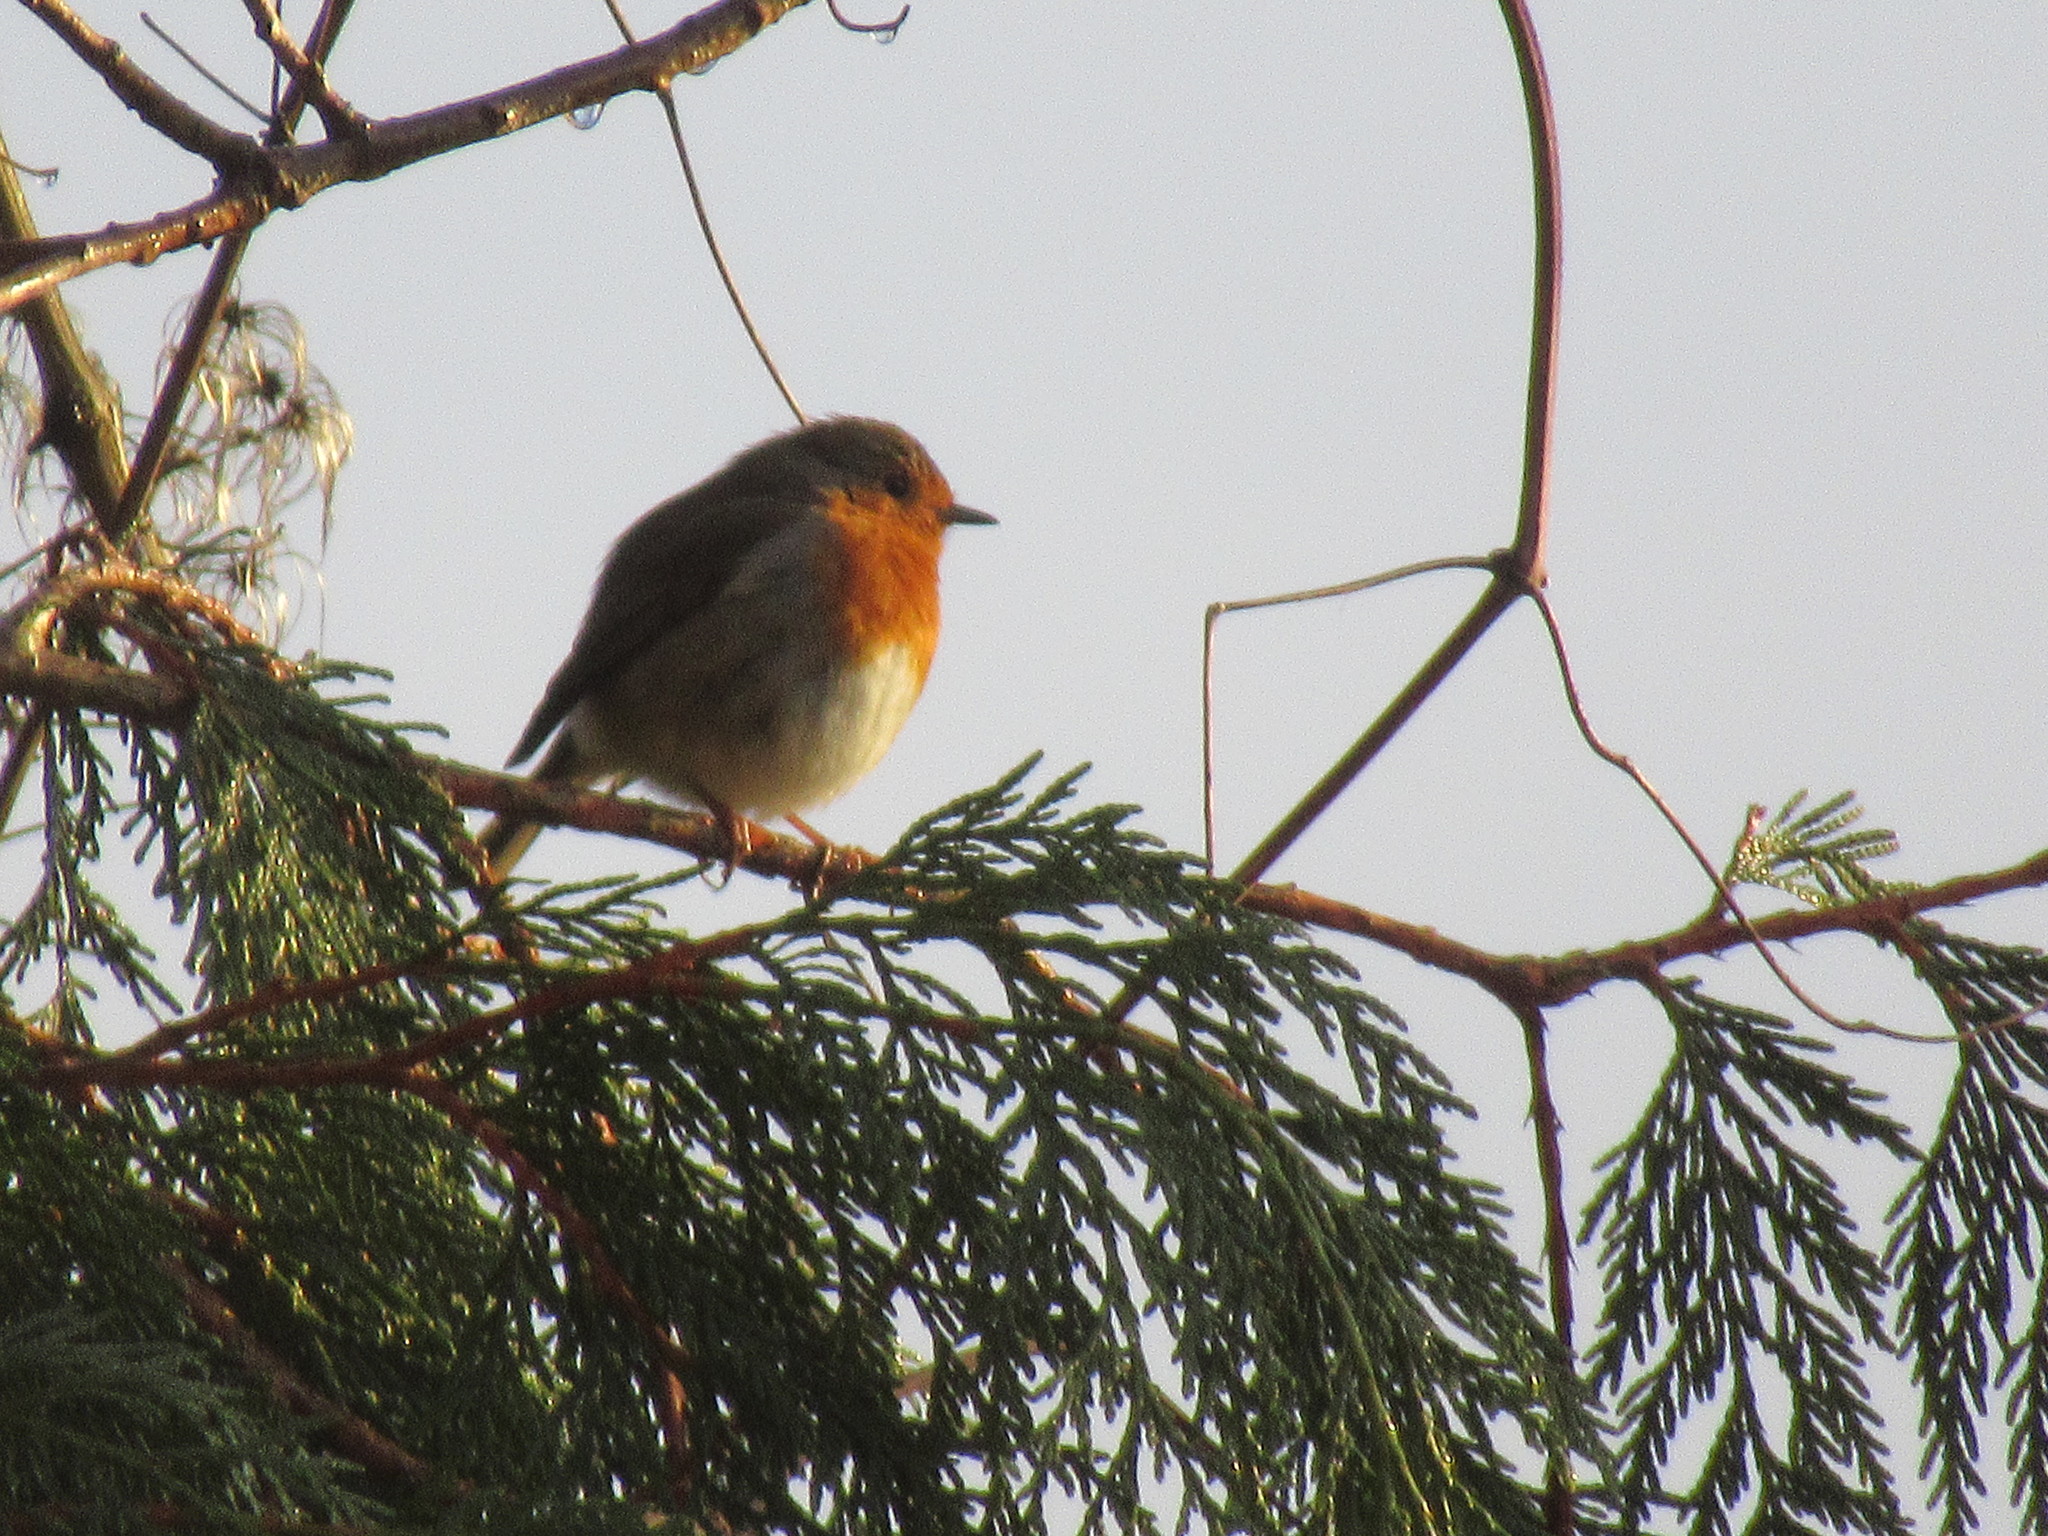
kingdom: Animalia
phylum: Chordata
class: Aves
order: Passeriformes
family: Muscicapidae
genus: Erithacus
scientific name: Erithacus rubecula
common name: European robin
